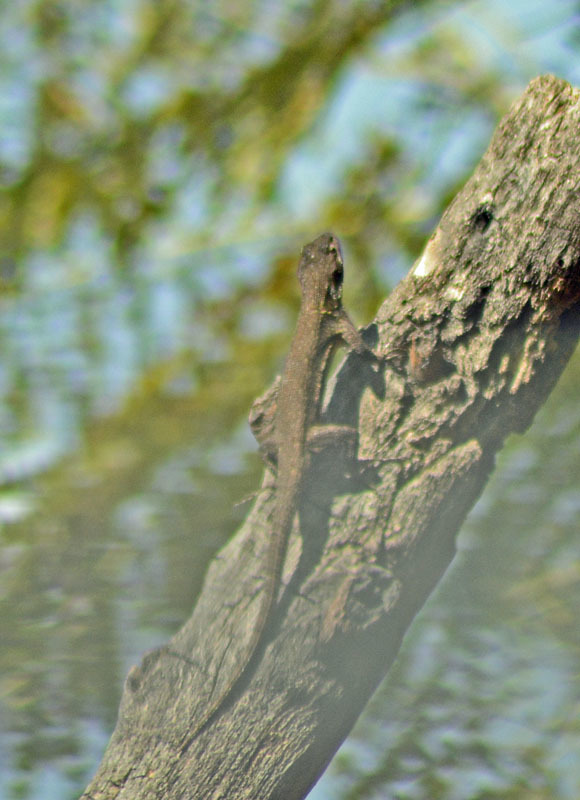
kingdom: Animalia
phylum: Chordata
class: Squamata
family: Phrynosomatidae
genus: Sceloporus
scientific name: Sceloporus grammicus
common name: Mesquite lizard
